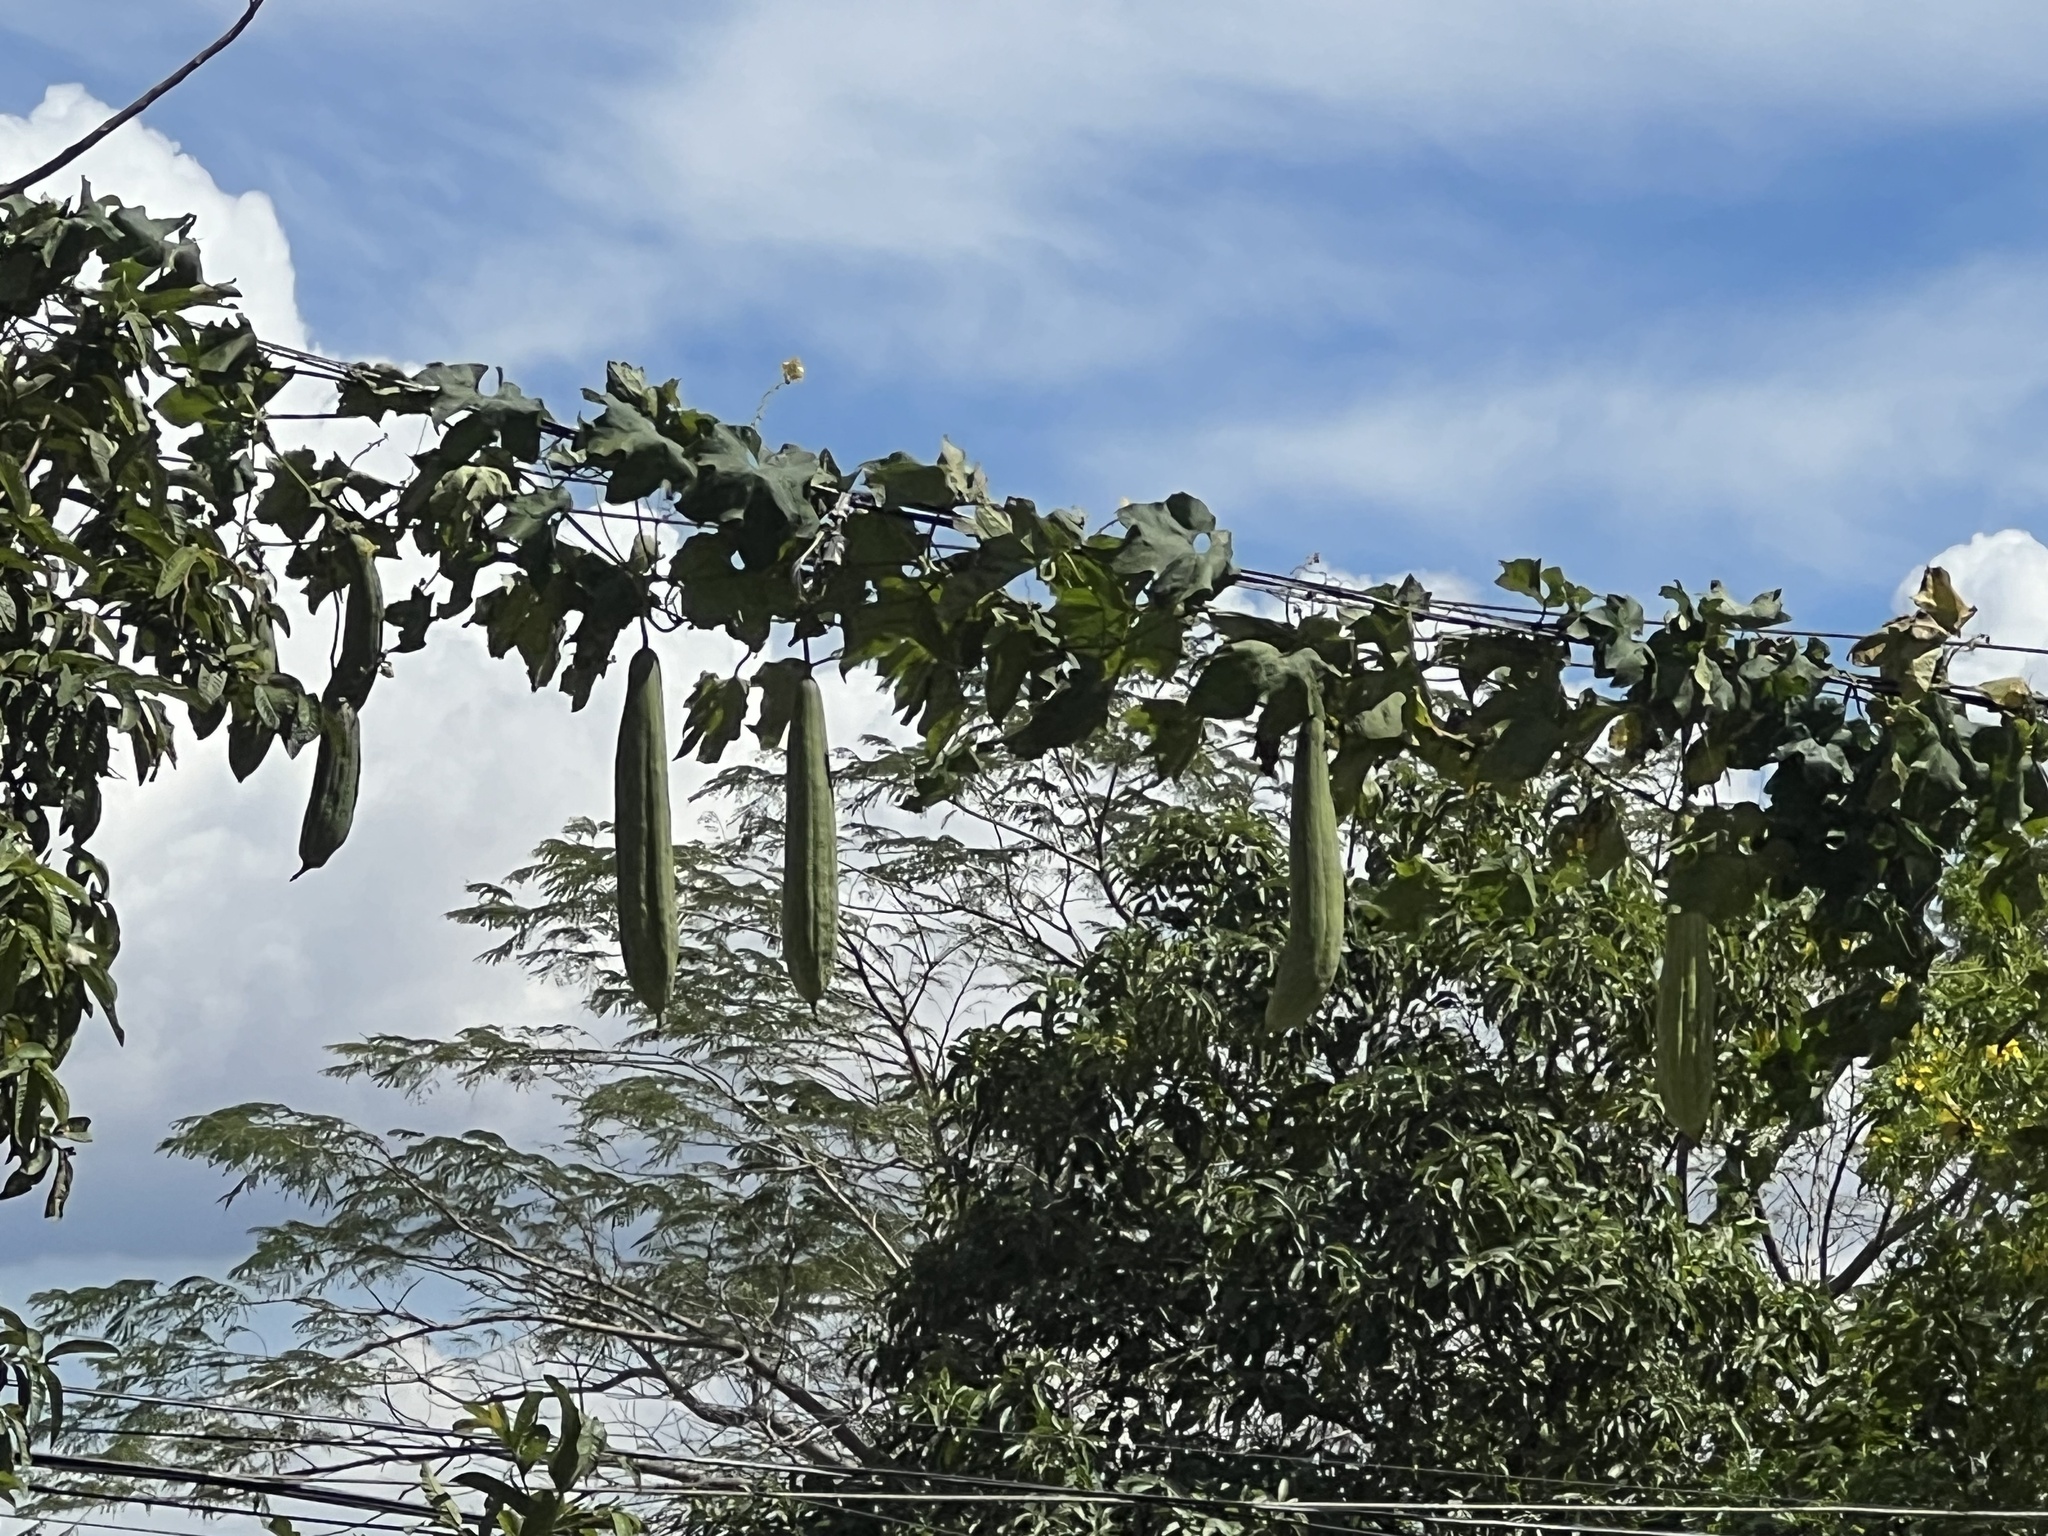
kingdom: Plantae
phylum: Tracheophyta
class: Magnoliopsida
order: Cucurbitales
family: Cucurbitaceae
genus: Luffa
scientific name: Luffa aegyptiaca
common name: Sponge gourd
